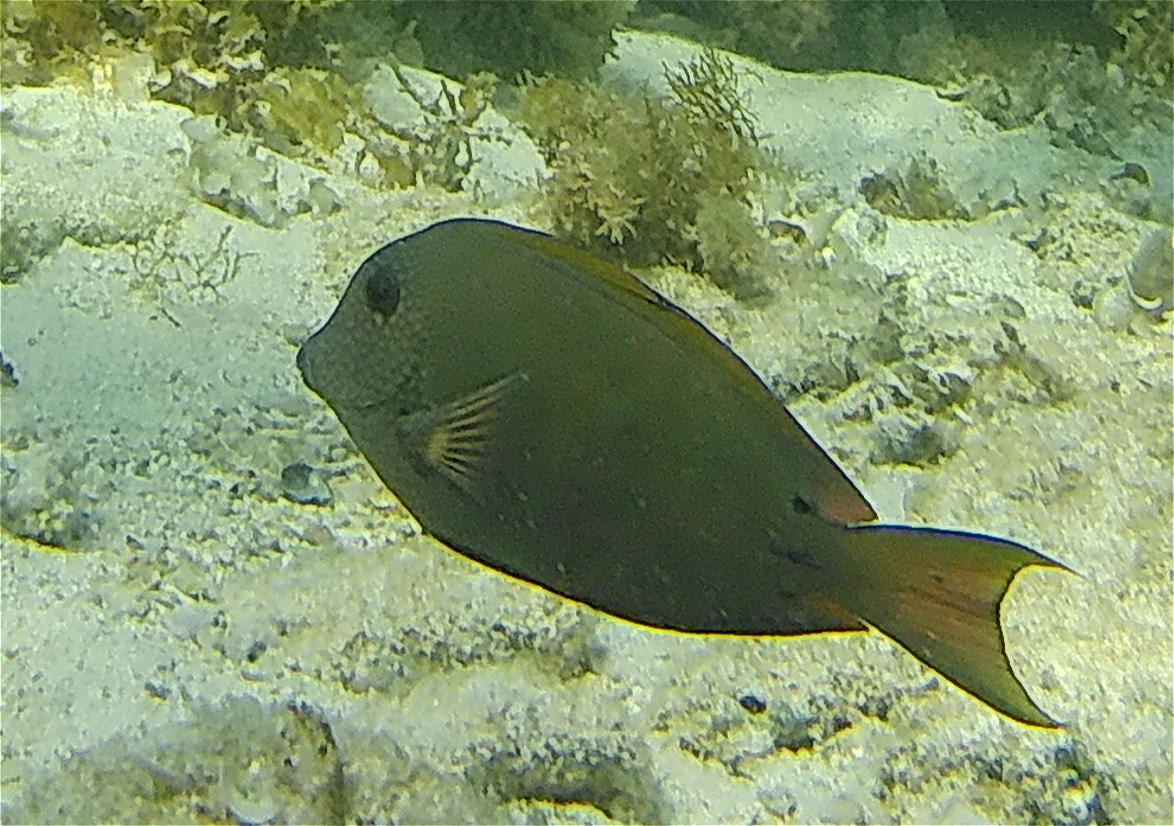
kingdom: Animalia
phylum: Chordata
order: Perciformes
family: Acanthuridae
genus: Acanthurus
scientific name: Acanthurus nigrofuscus
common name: Blackspot surgeonfish
